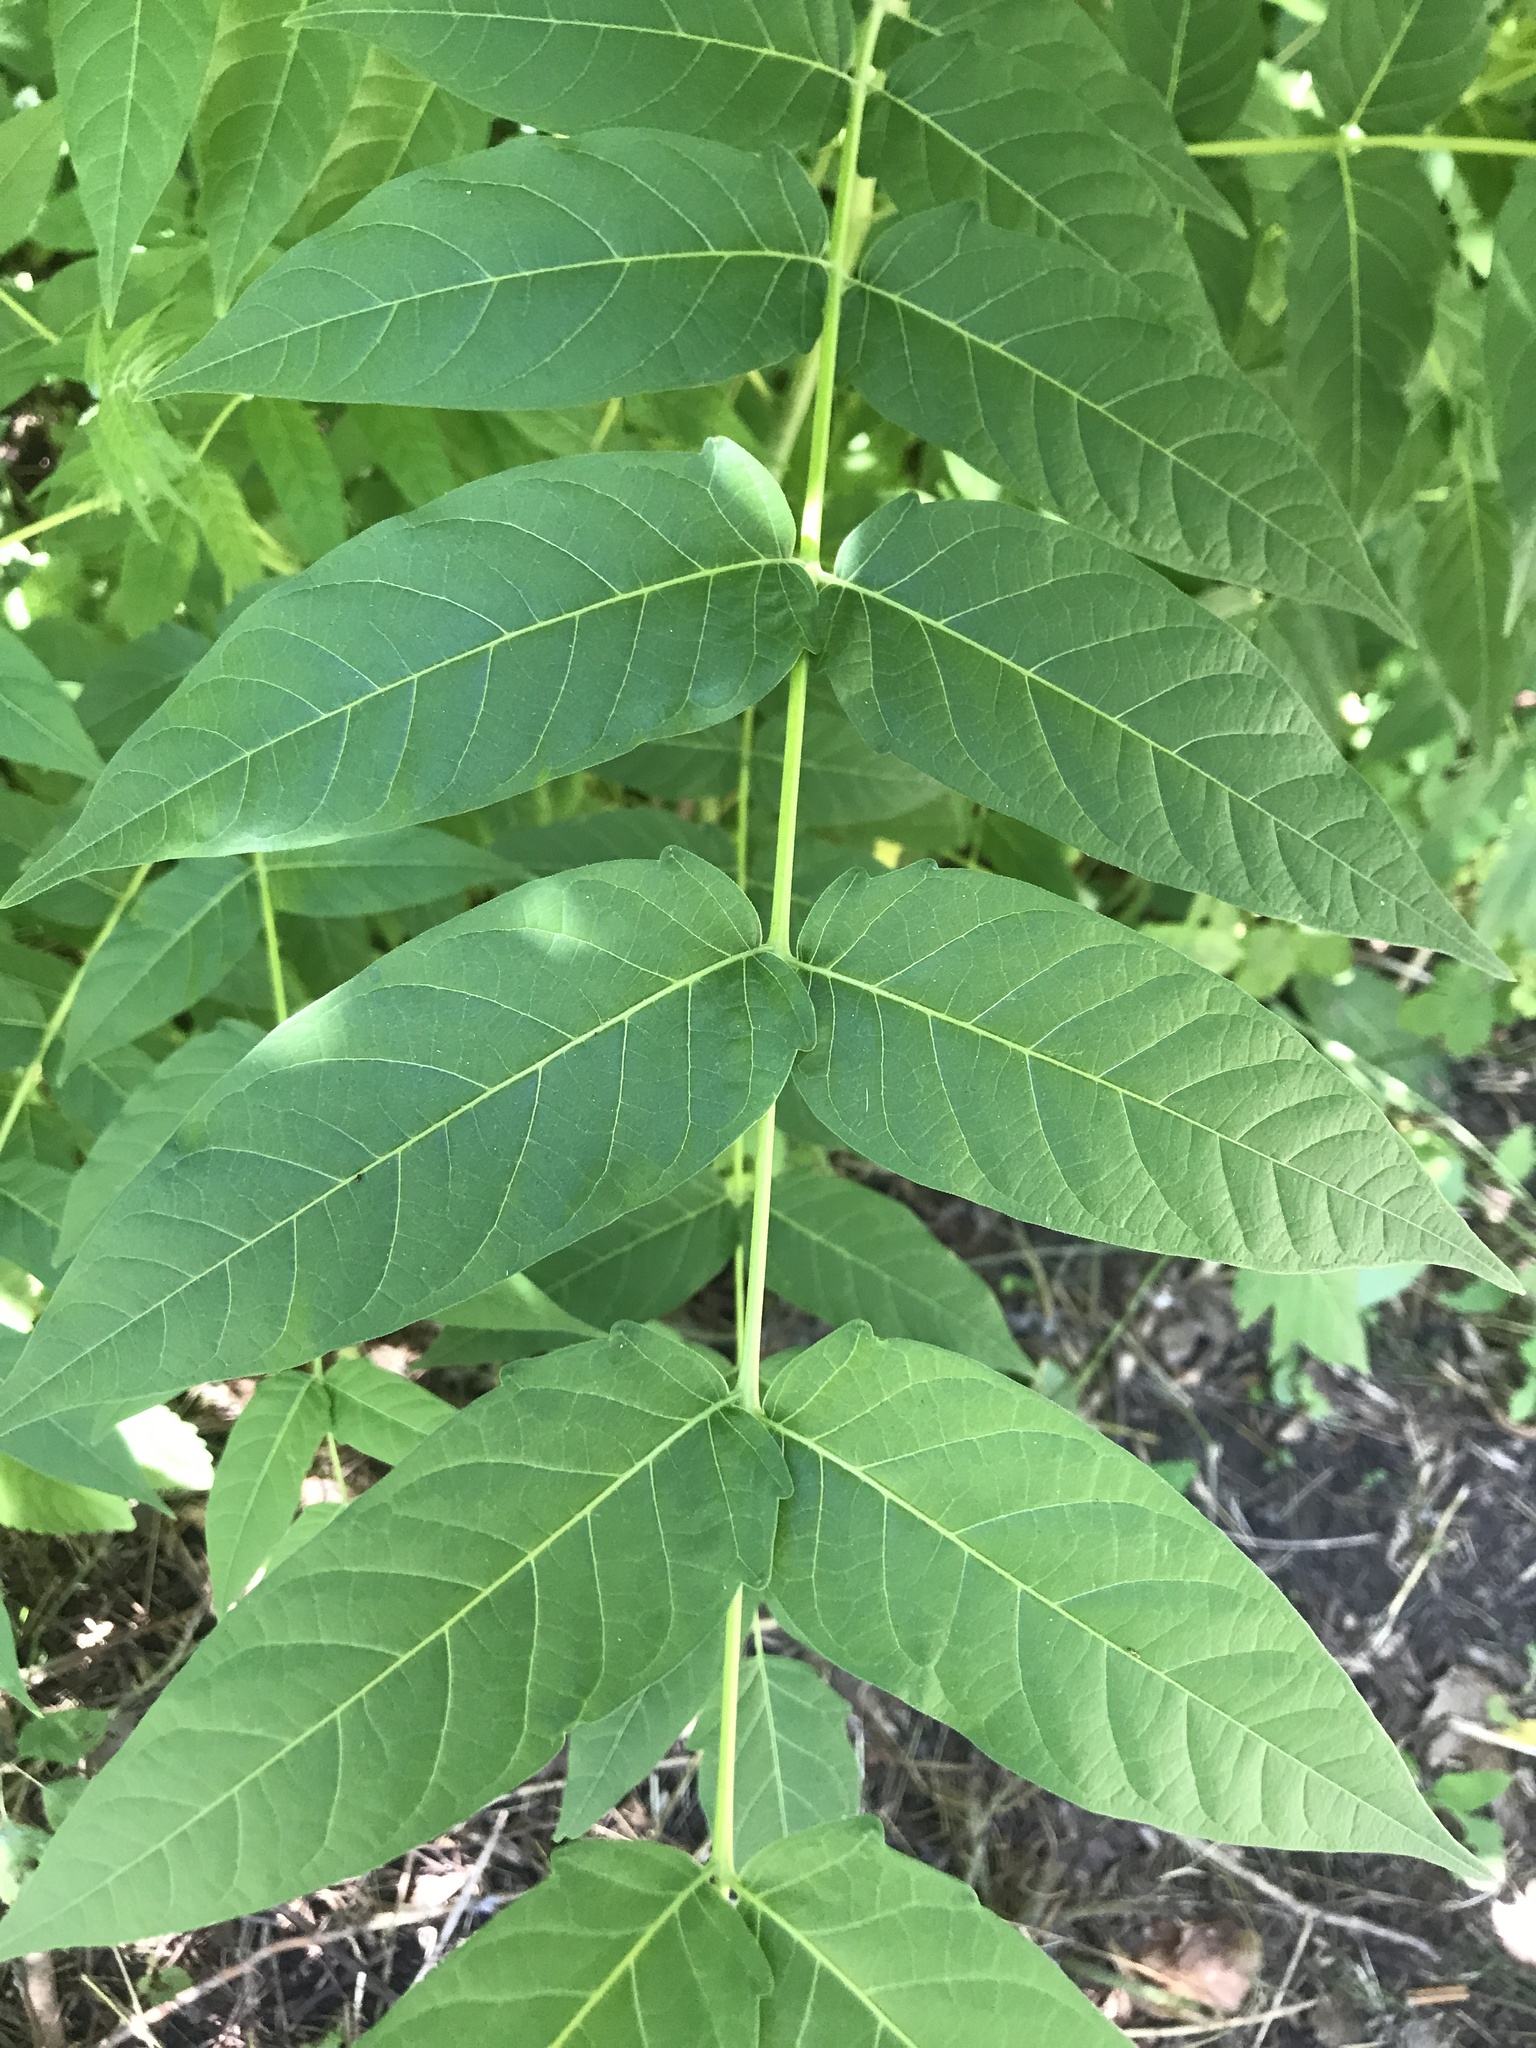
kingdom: Plantae
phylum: Tracheophyta
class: Magnoliopsida
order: Sapindales
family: Simaroubaceae
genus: Ailanthus
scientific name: Ailanthus altissima
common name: Tree-of-heaven
